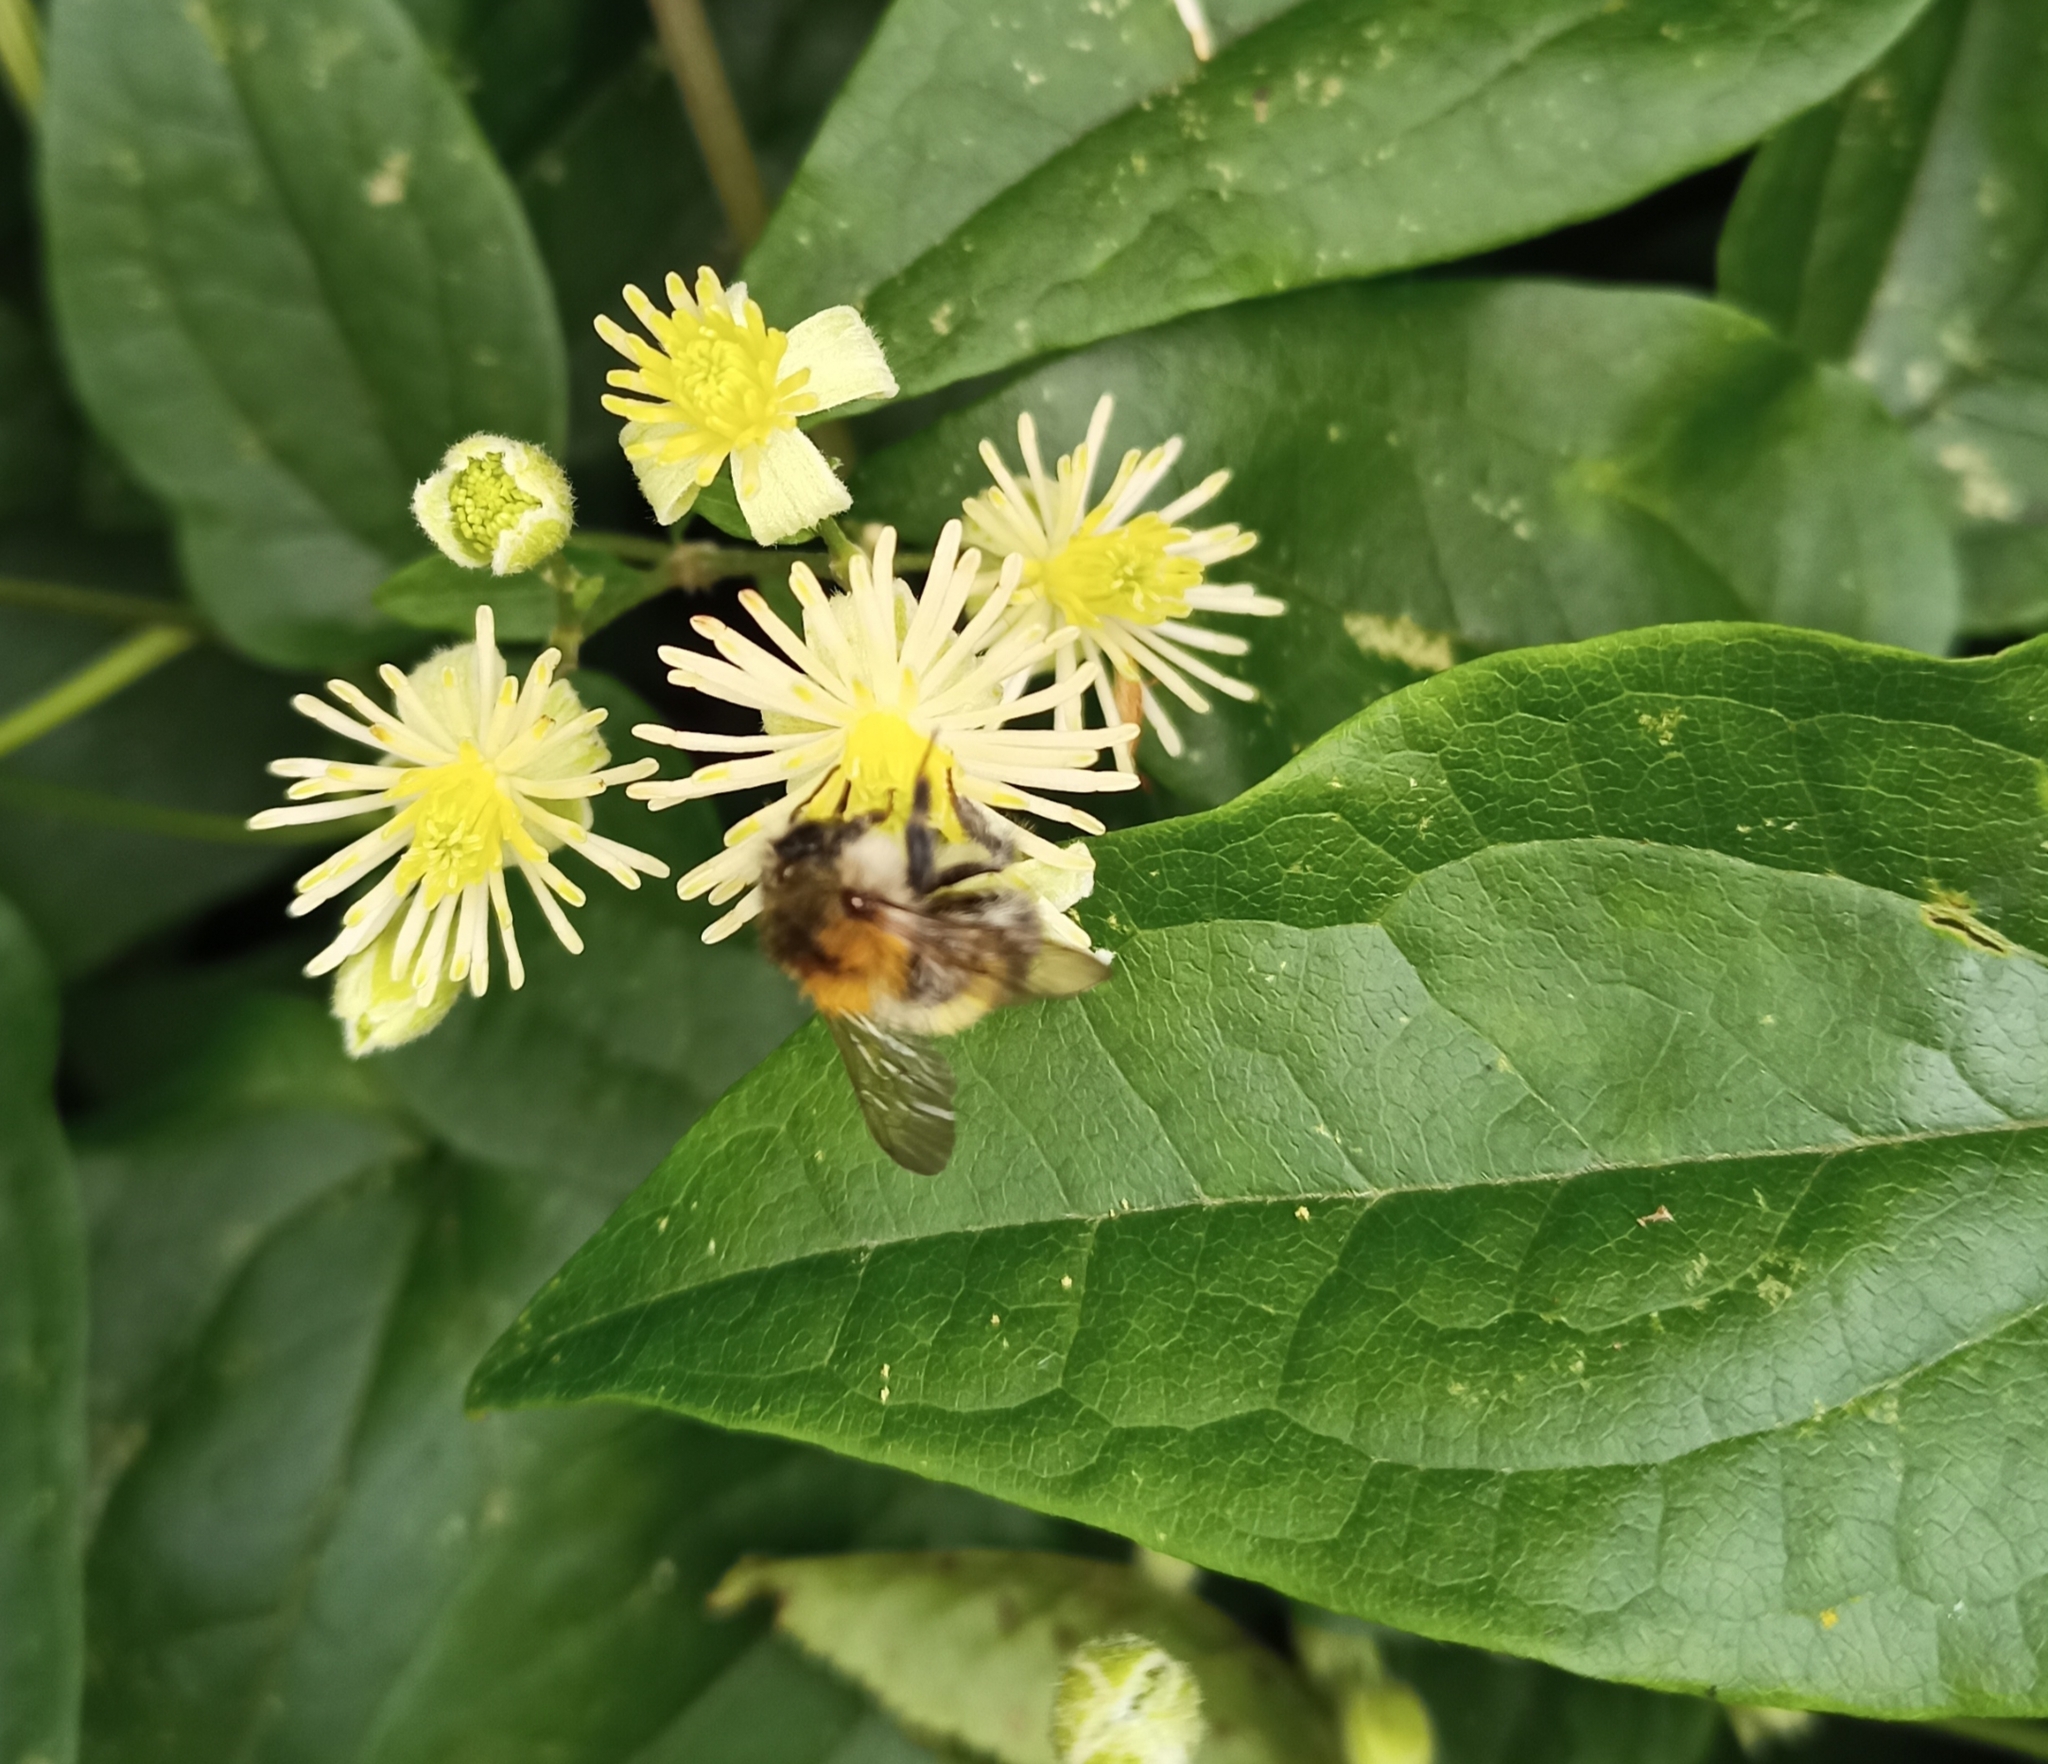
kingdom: Animalia
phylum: Arthropoda
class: Insecta
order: Hymenoptera
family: Apidae
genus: Bombus
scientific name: Bombus pascuorum
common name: Common carder bee
